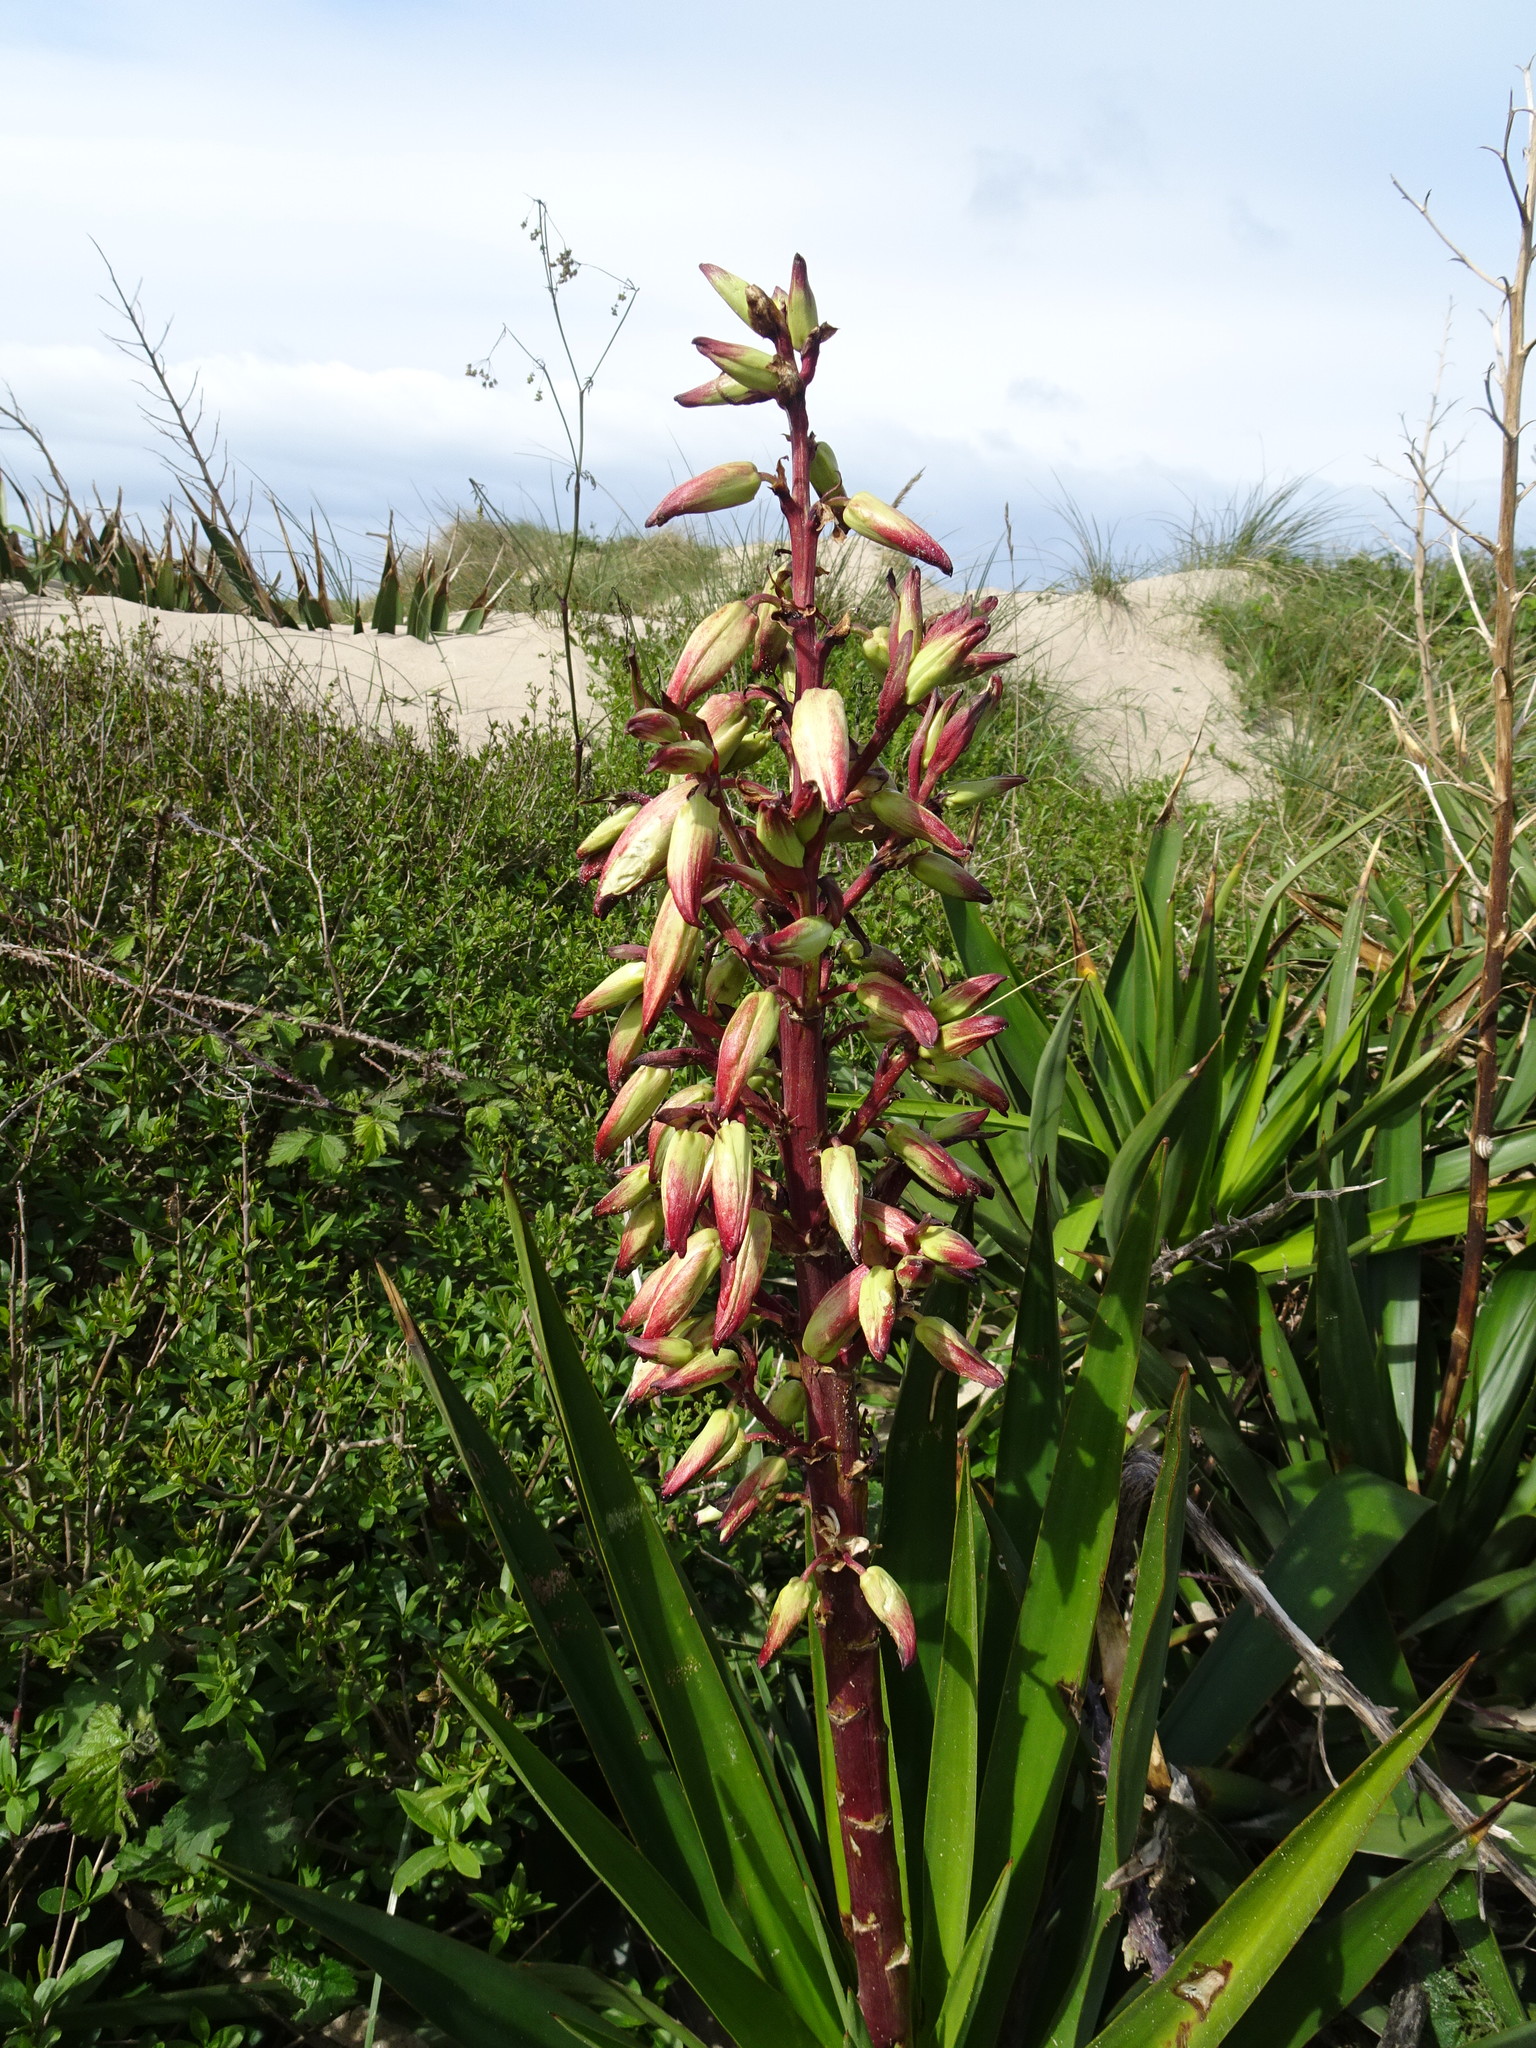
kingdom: Plantae
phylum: Tracheophyta
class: Liliopsida
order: Asparagales
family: Asparagaceae
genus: Yucca
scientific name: Yucca gloriosa
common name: Spanish-dagger
